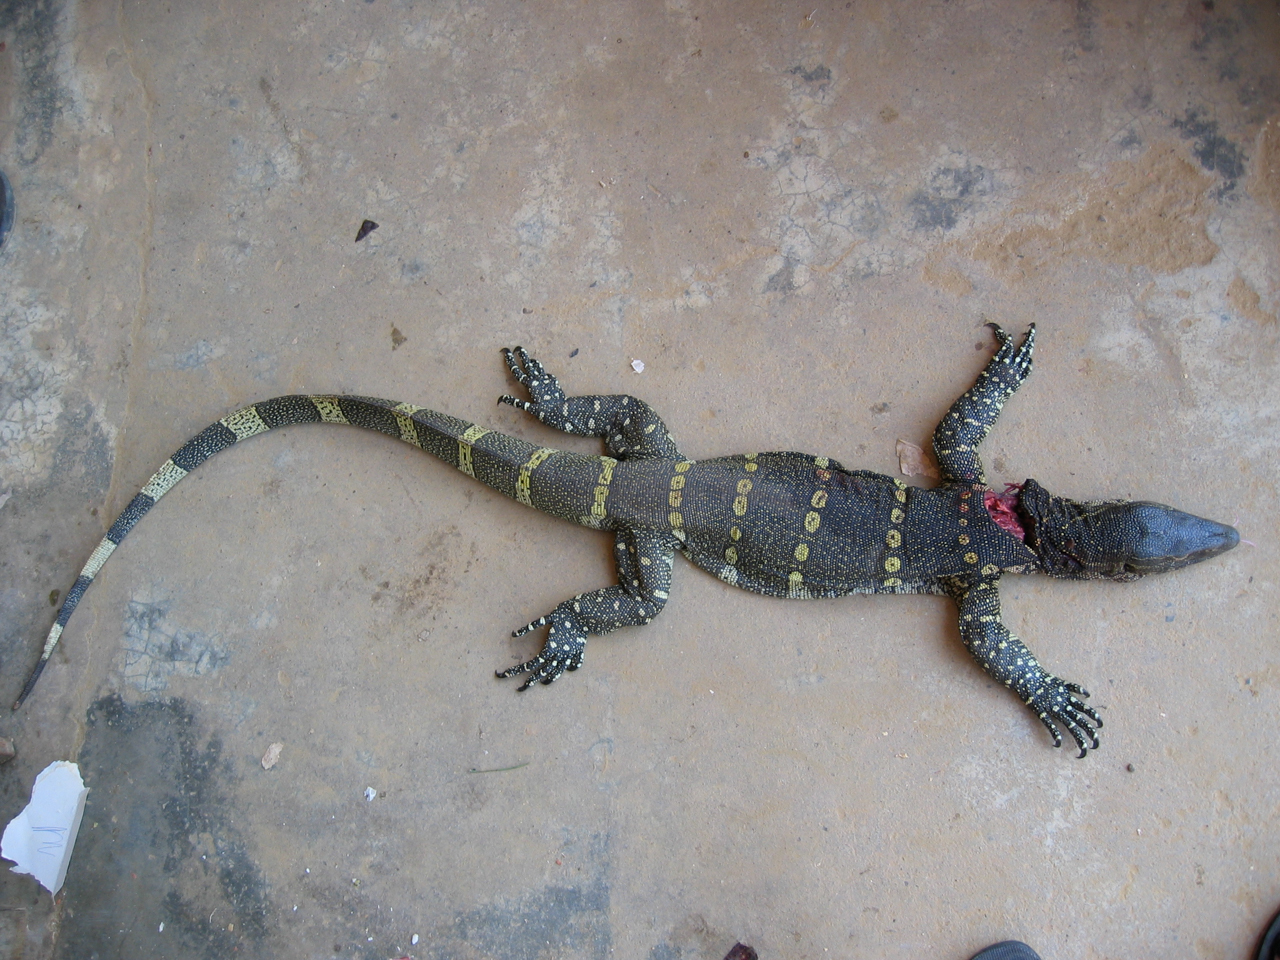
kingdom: Animalia
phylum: Chordata
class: Squamata
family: Varanidae
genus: Varanus
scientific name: Varanus niloticus
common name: Nile monitor
